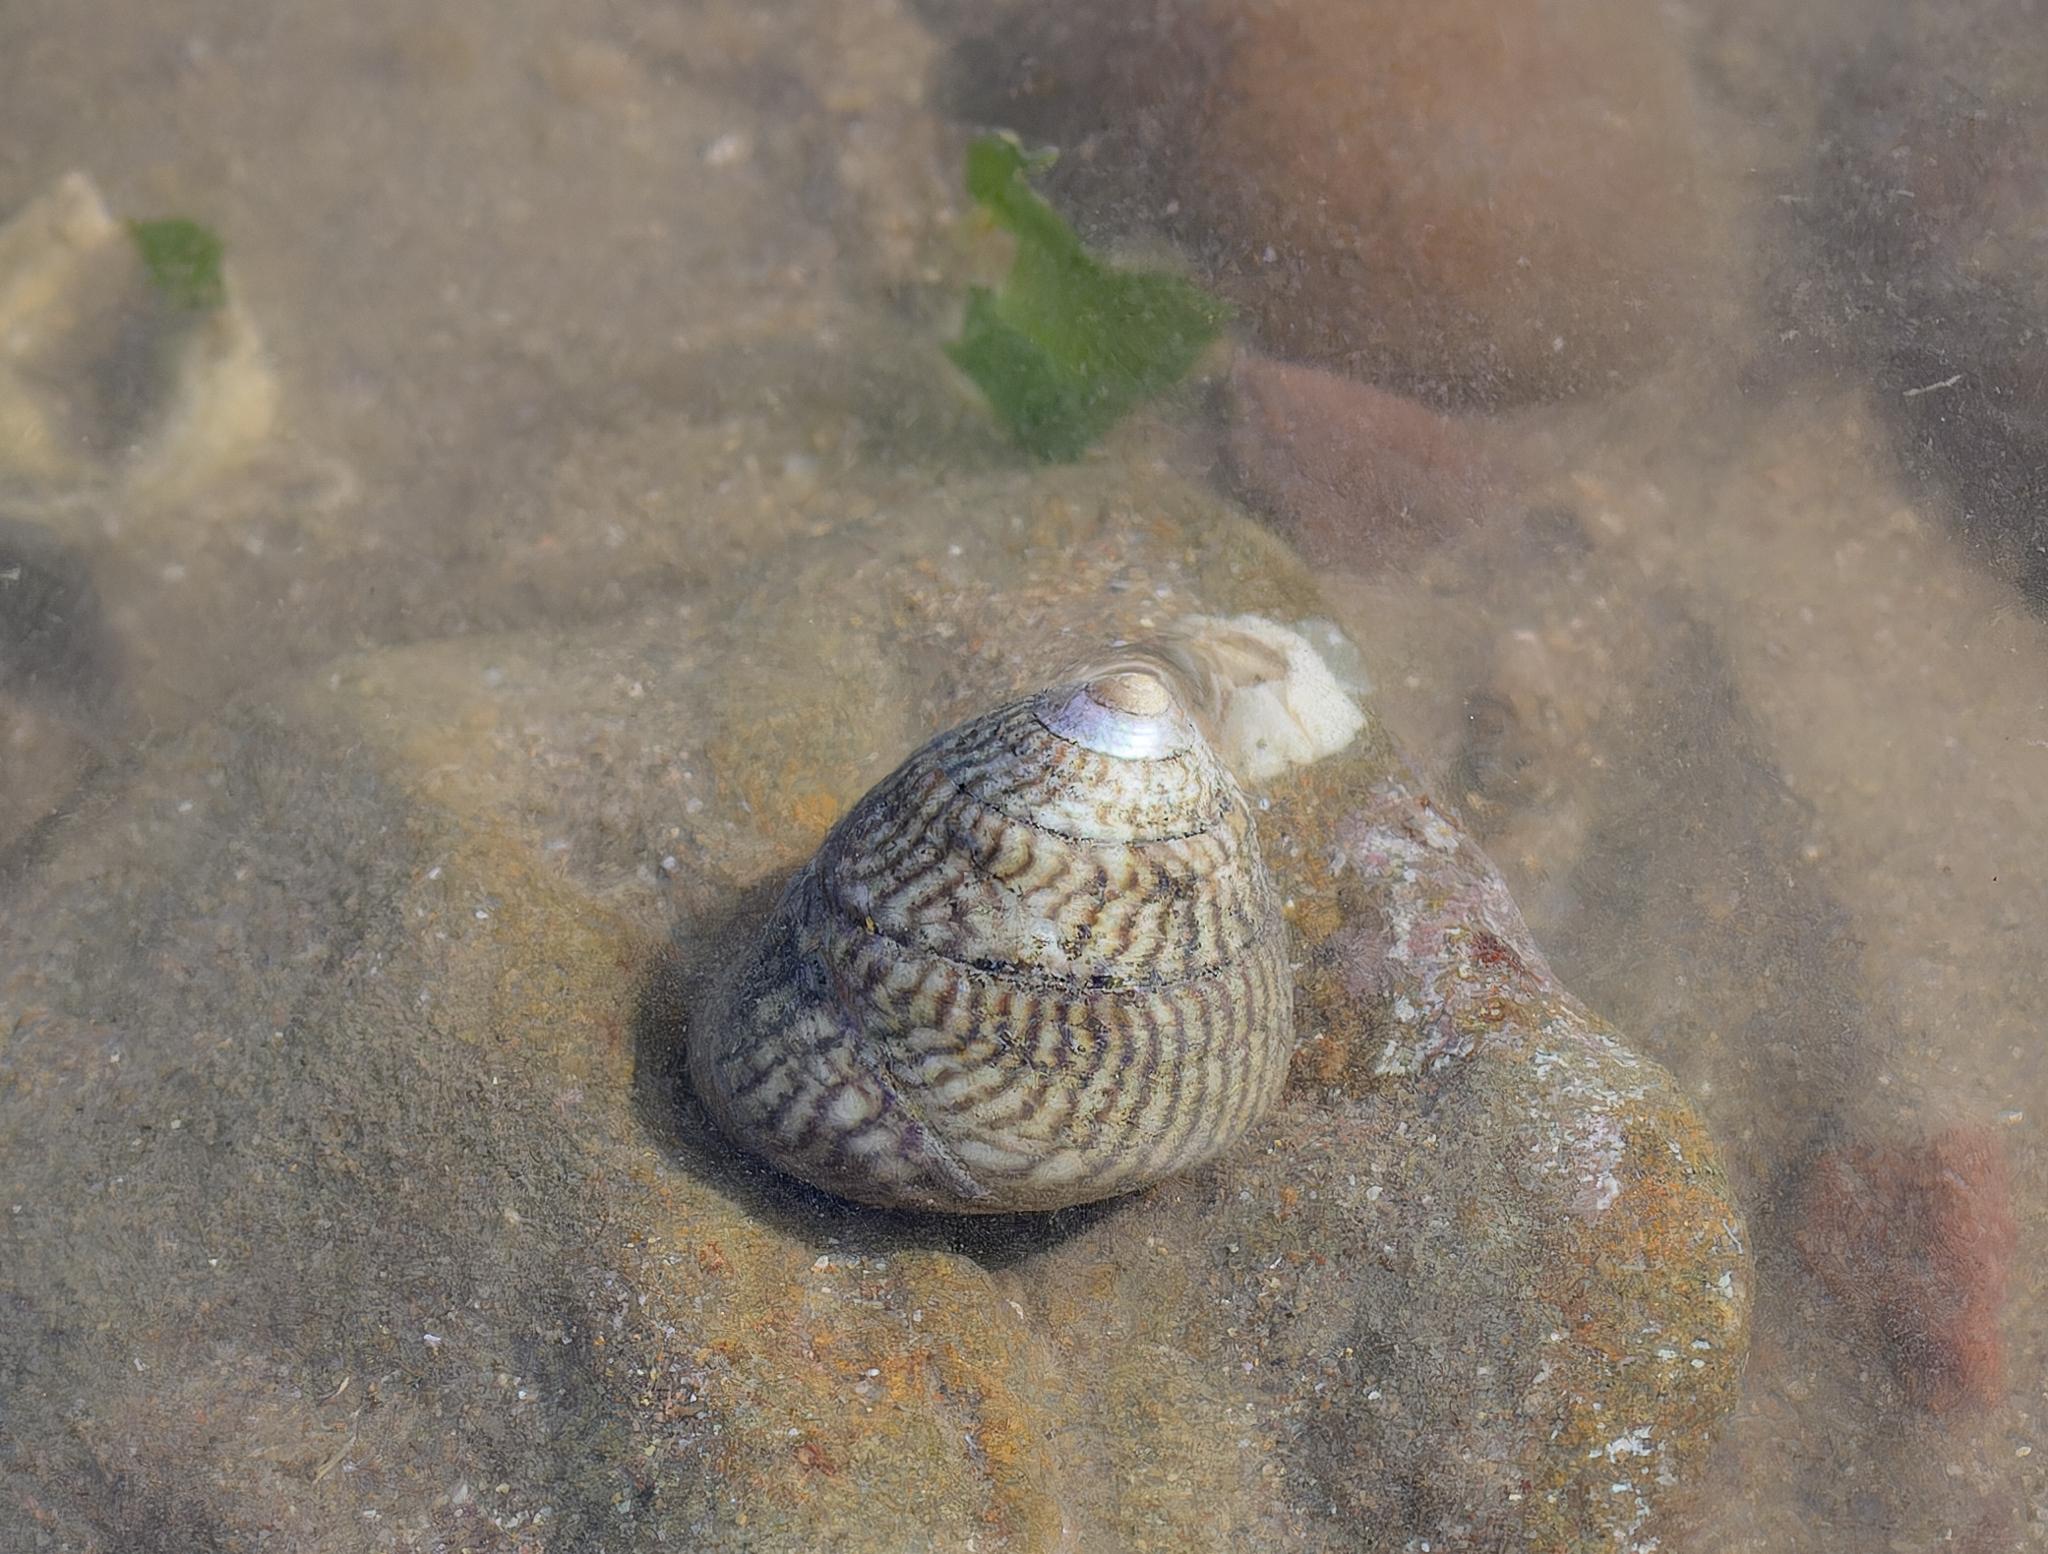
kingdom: Animalia
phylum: Mollusca
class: Gastropoda
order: Trochida
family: Trochidae
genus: Steromphala
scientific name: Steromphala cineraria
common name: Grey top shell
